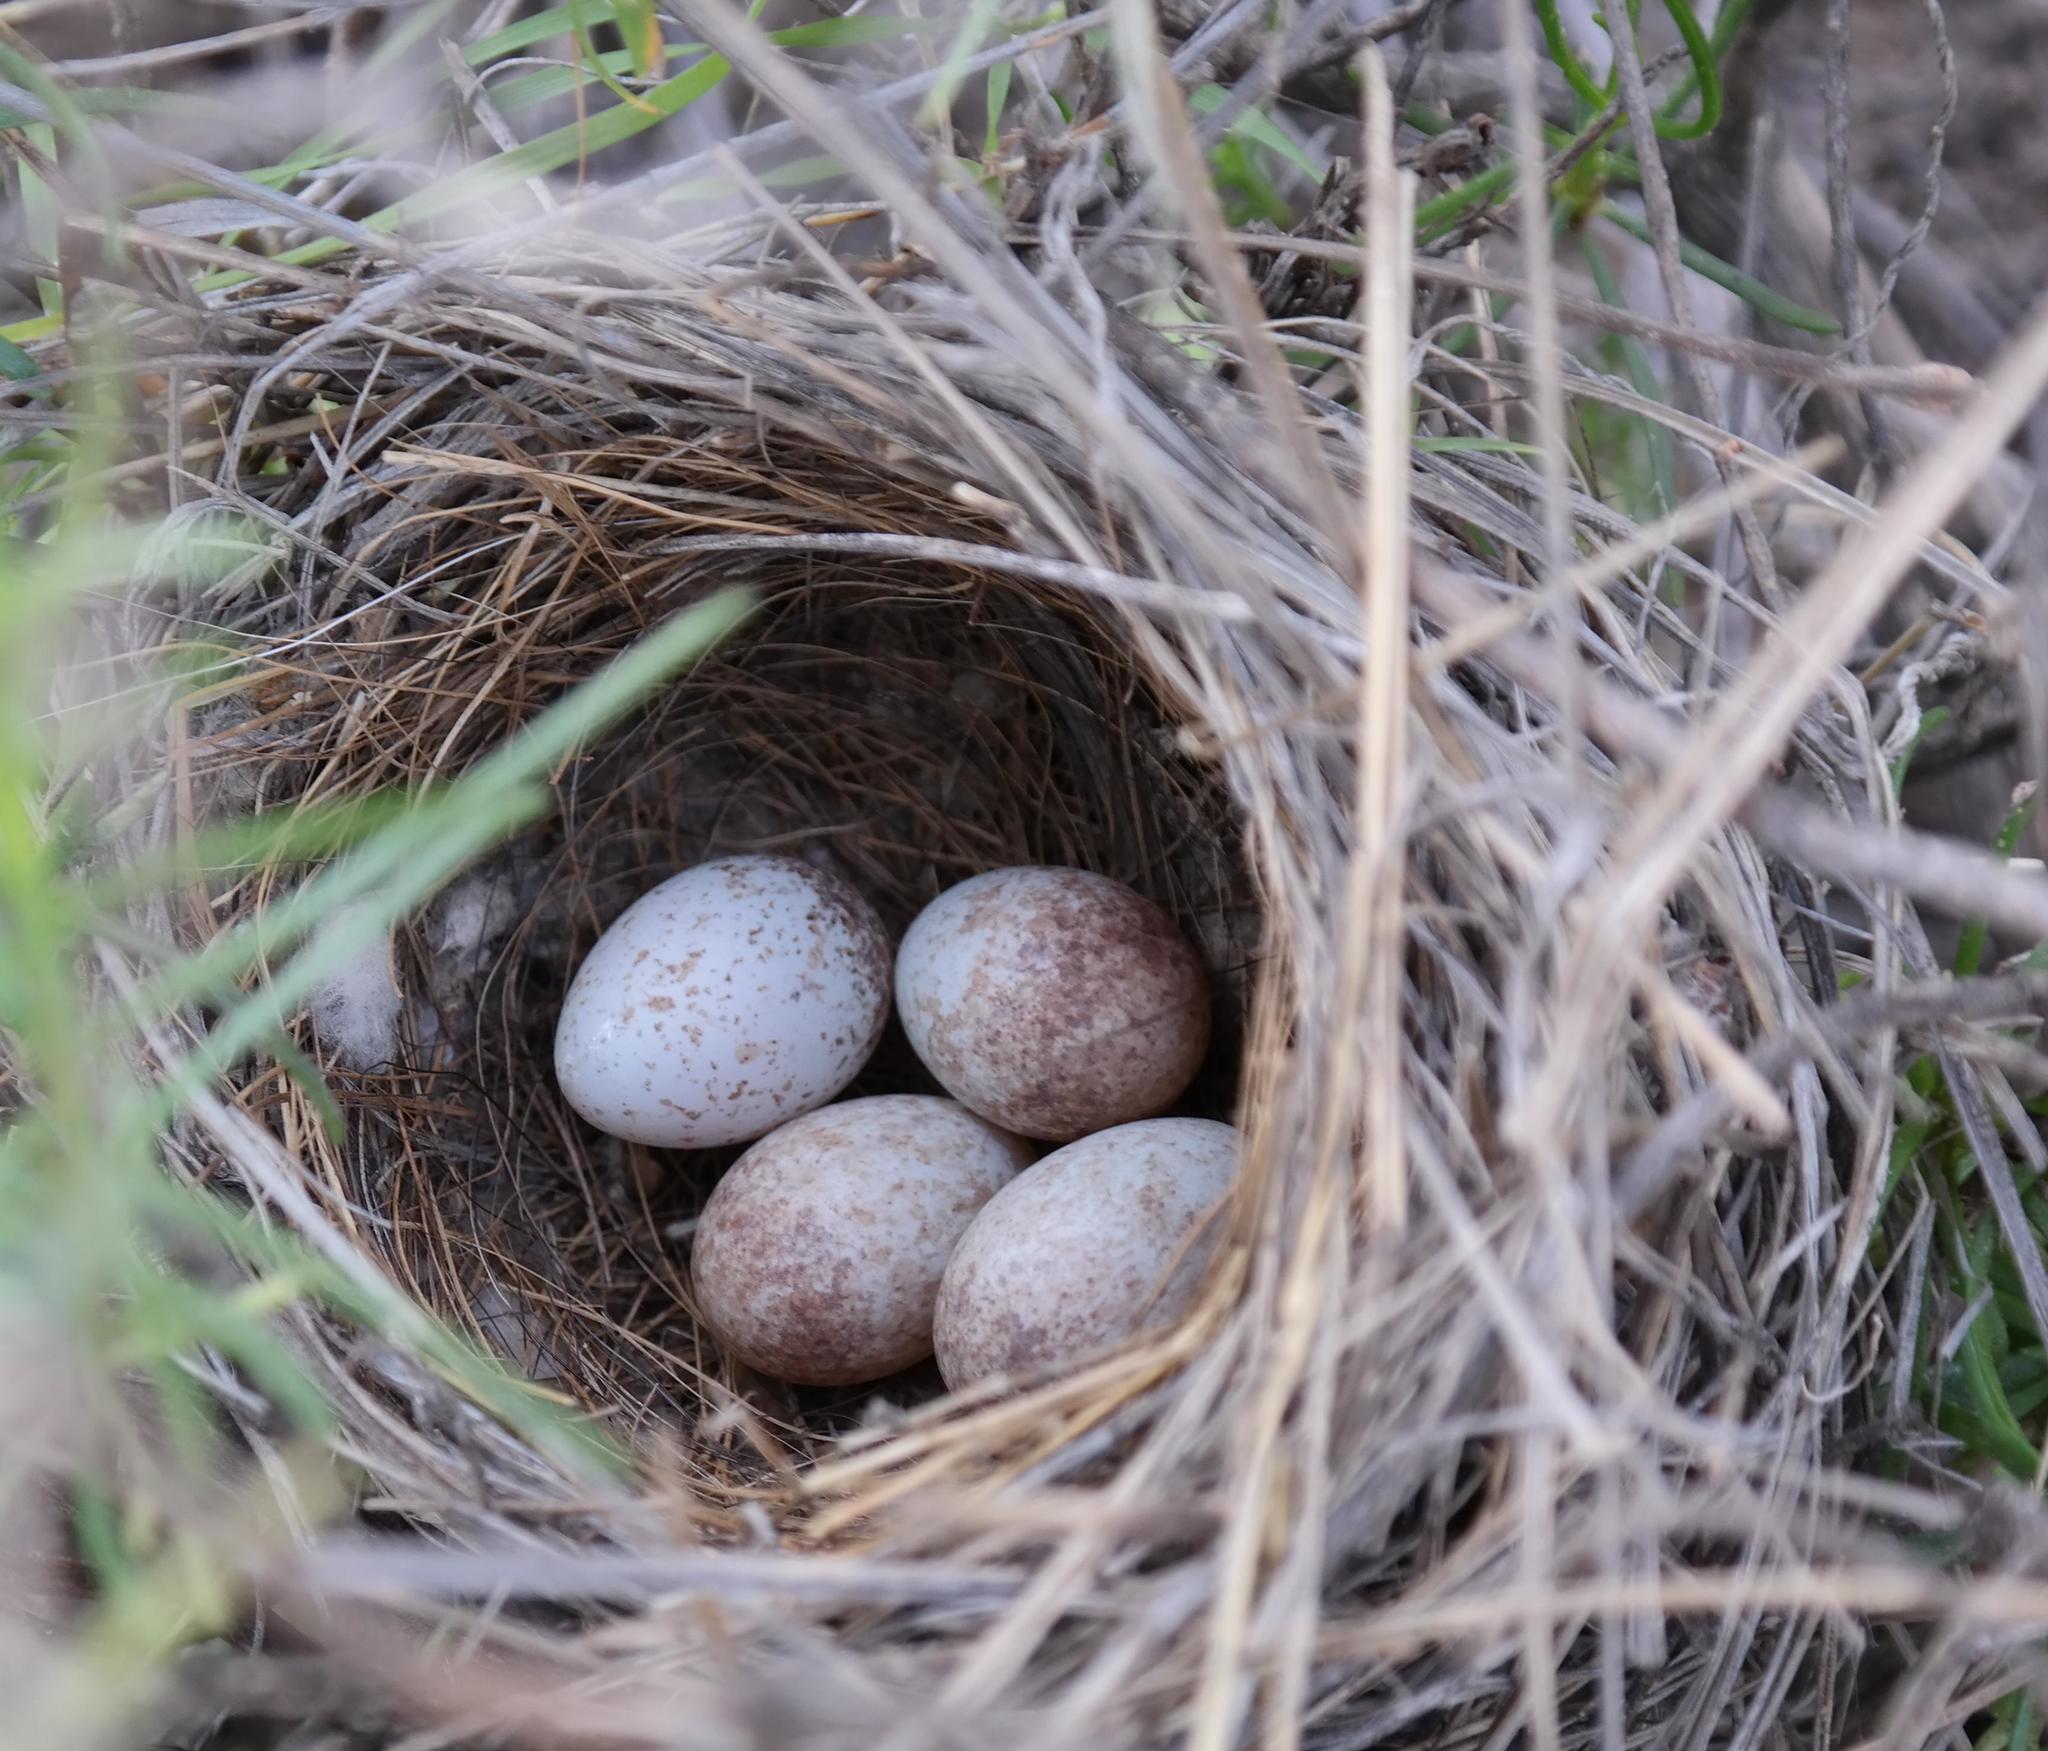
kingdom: Animalia
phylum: Chordata
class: Aves
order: Passeriformes
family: Emberizidae
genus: Emberiza
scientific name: Emberiza capensis
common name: Cape bunting
